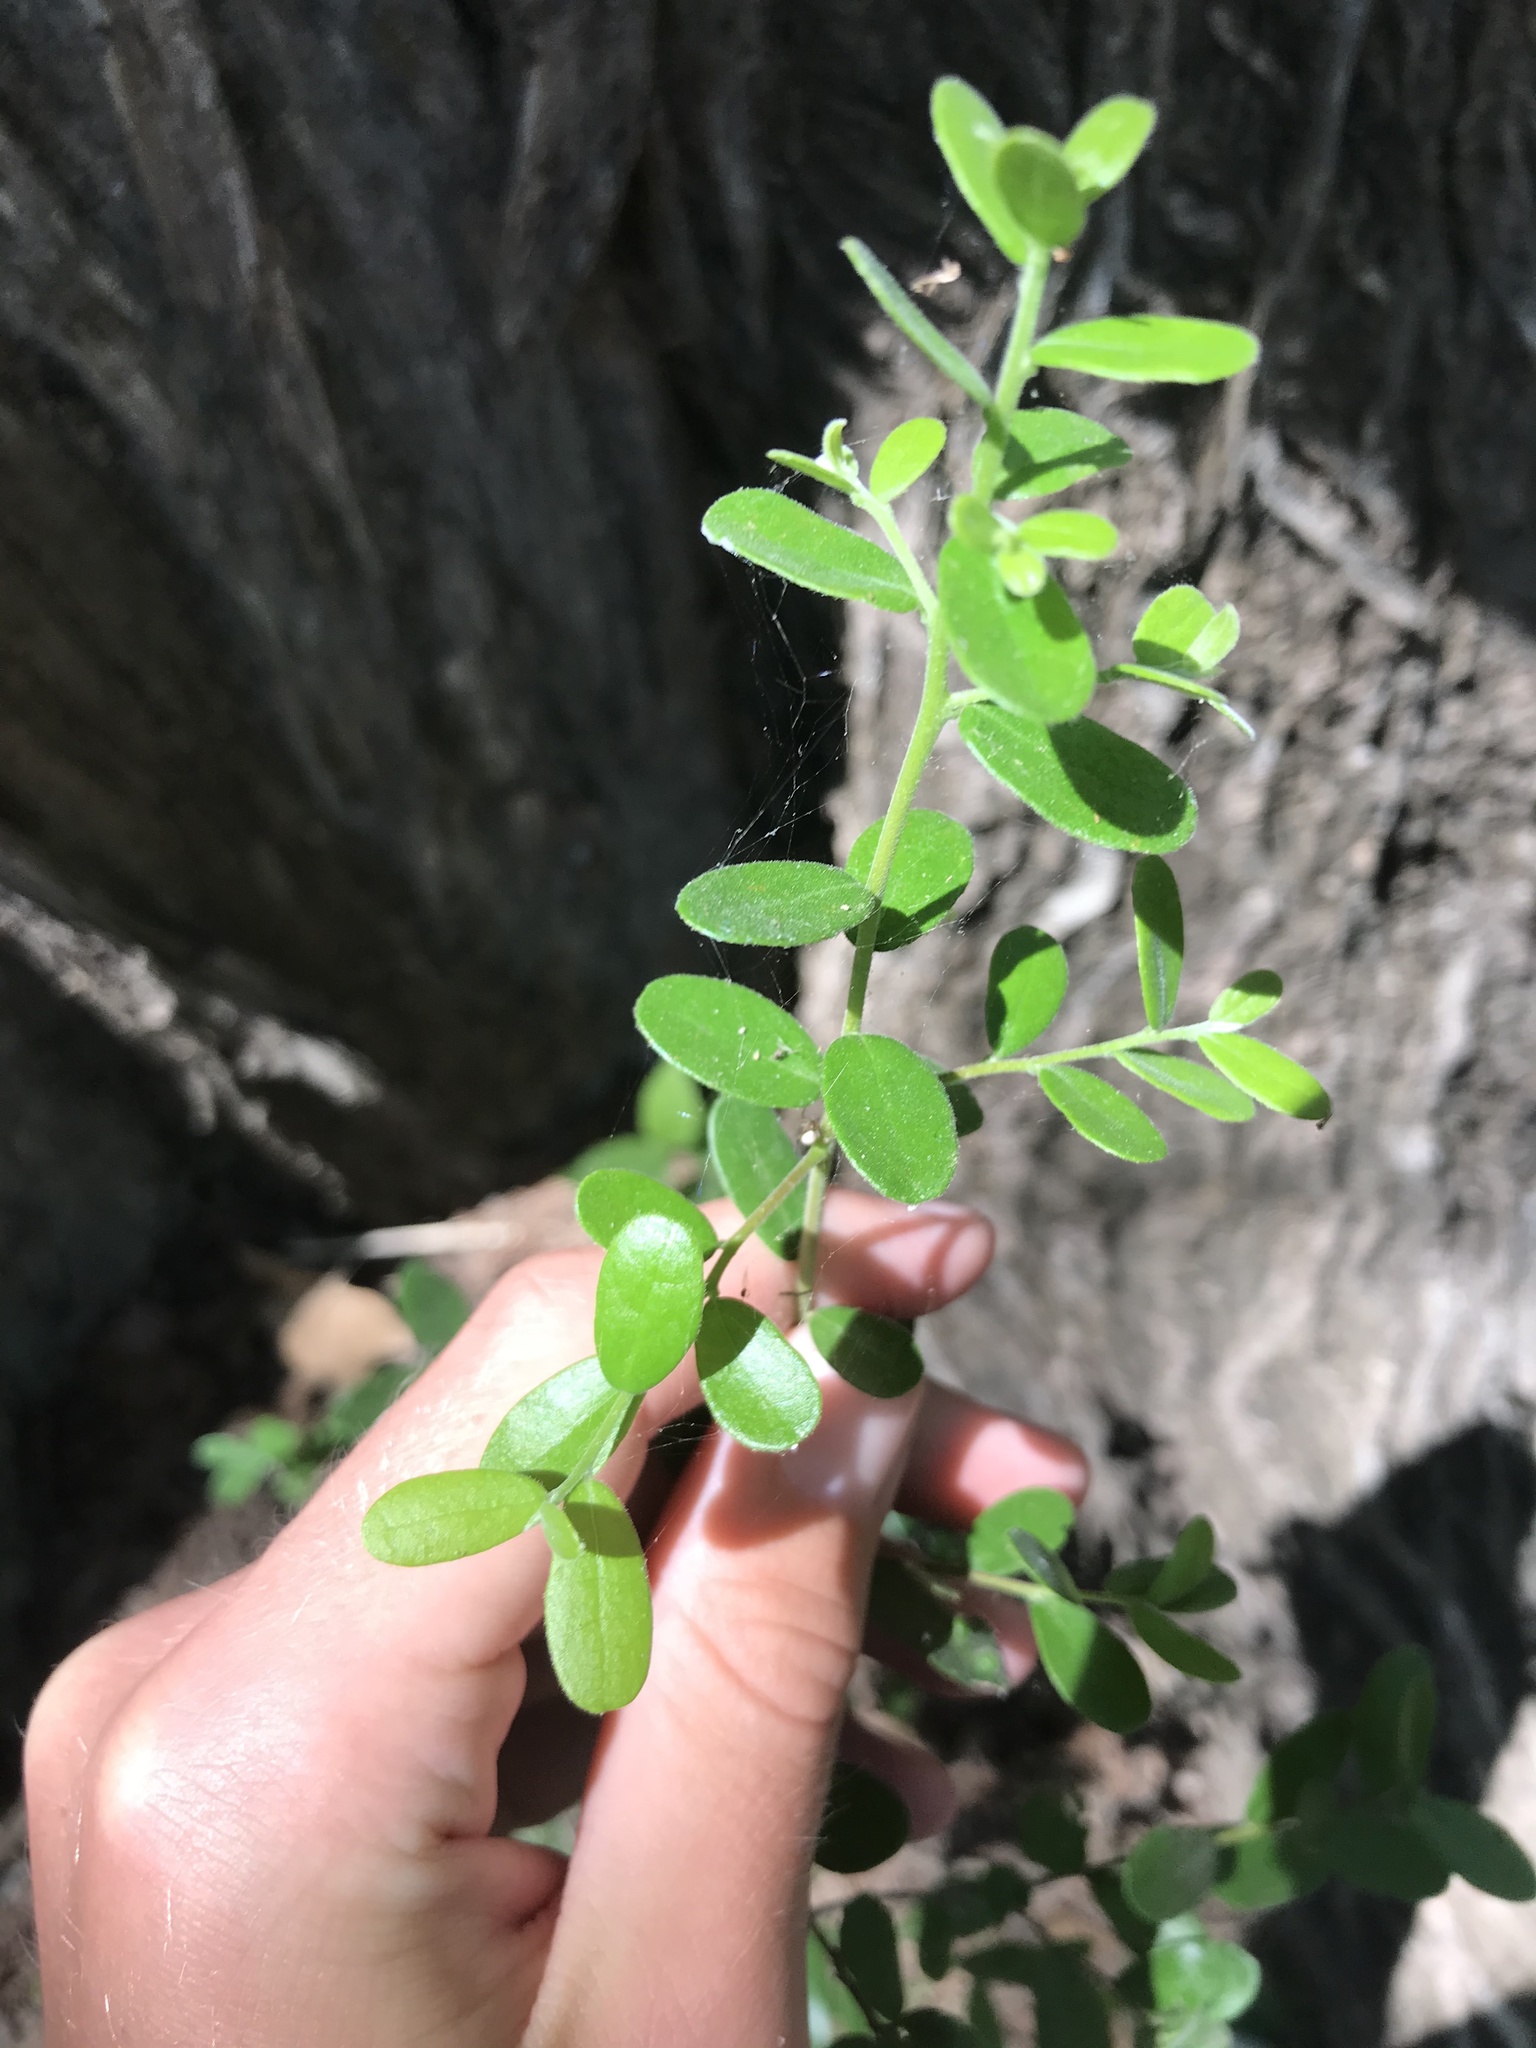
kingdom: Plantae
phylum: Tracheophyta
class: Magnoliopsida
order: Ericales
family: Ebenaceae
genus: Diospyros
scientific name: Diospyros texana
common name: Texas persimmon
